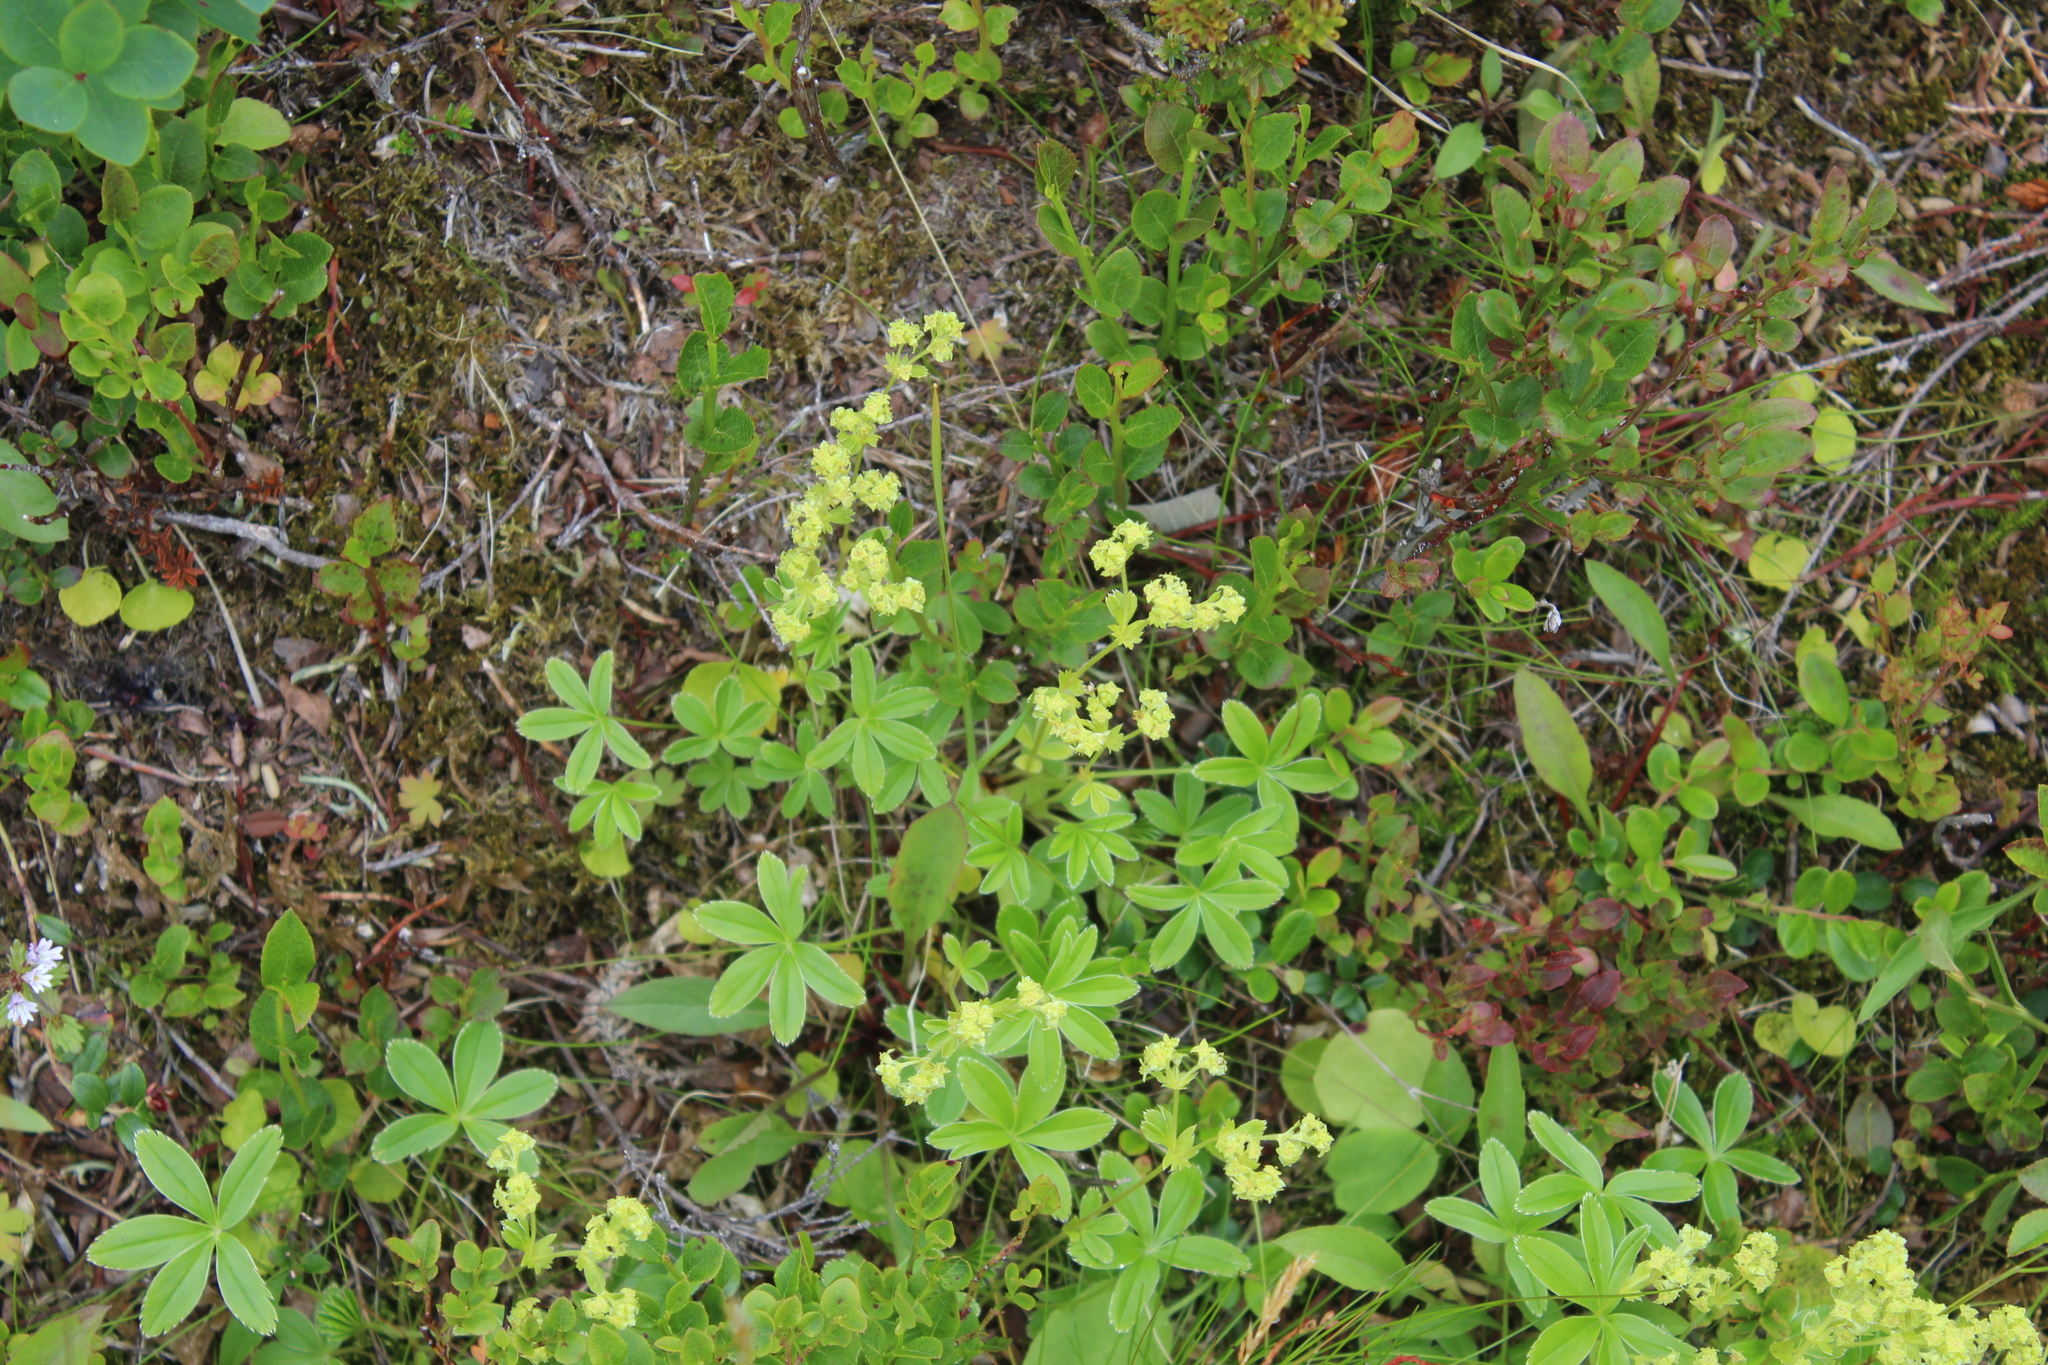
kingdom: Plantae
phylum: Tracheophyta
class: Magnoliopsida
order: Rosales
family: Rosaceae
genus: Alchemilla
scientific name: Alchemilla alpina
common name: Alpine lady's-mantle
